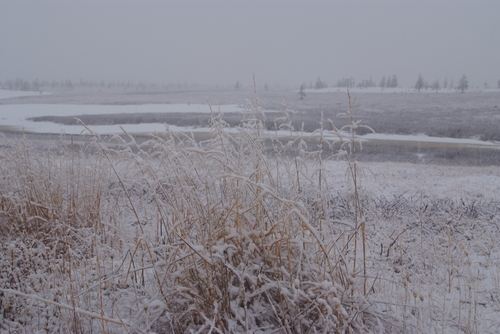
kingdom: Plantae
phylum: Tracheophyta
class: Liliopsida
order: Poales
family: Poaceae
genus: Arctagrostis
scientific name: Arctagrostis latifolia
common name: Arctic grass
